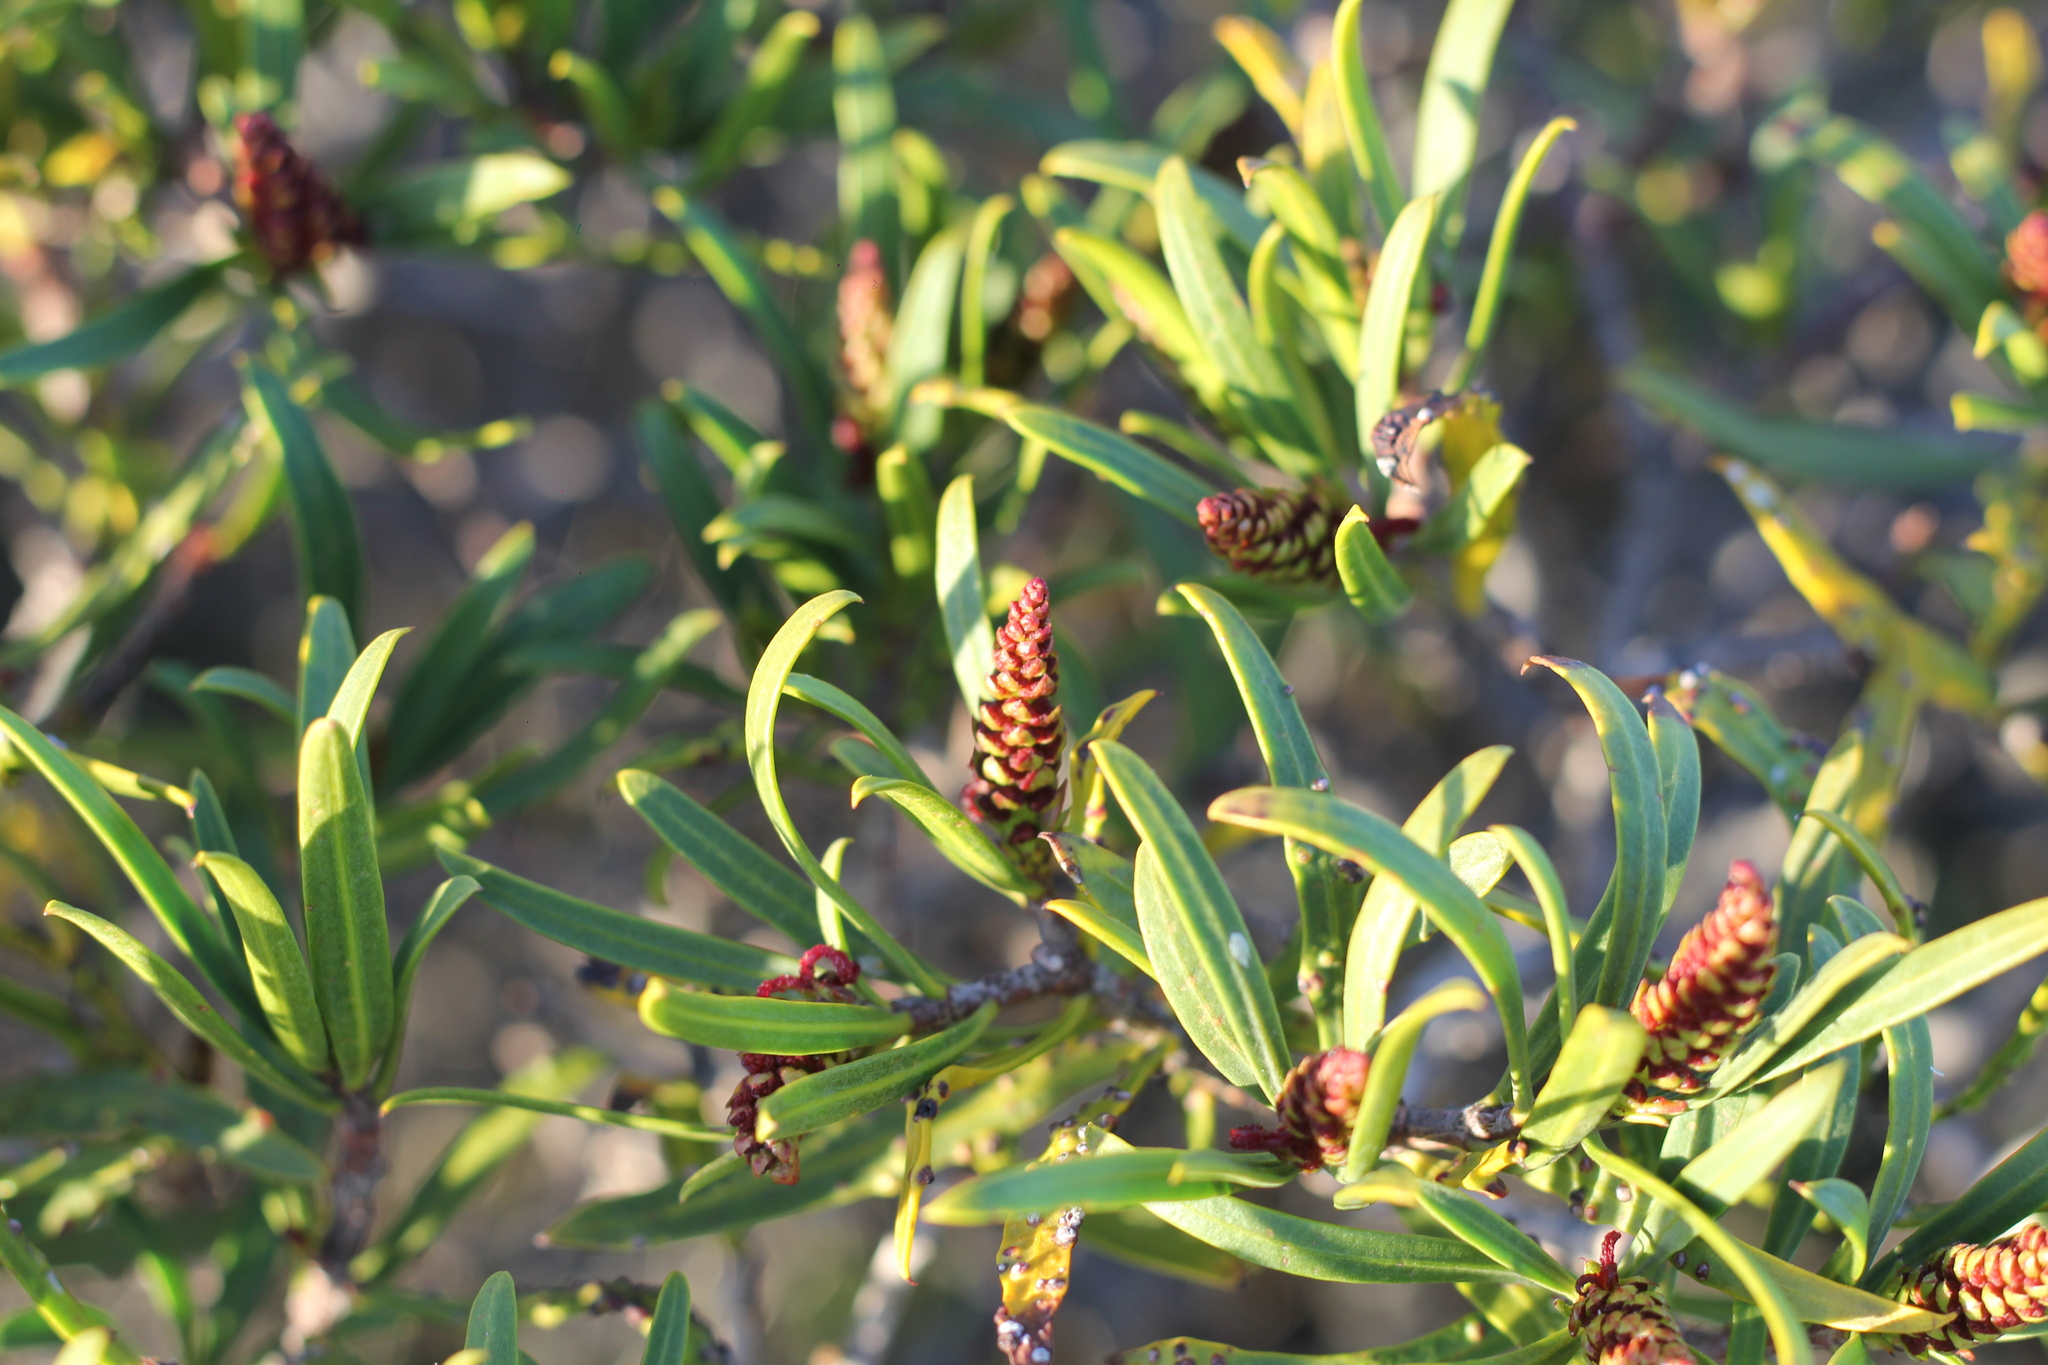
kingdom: Plantae
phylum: Tracheophyta
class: Magnoliopsida
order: Malpighiales
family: Euphorbiaceae
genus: Colliguaja
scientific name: Colliguaja integerrima
